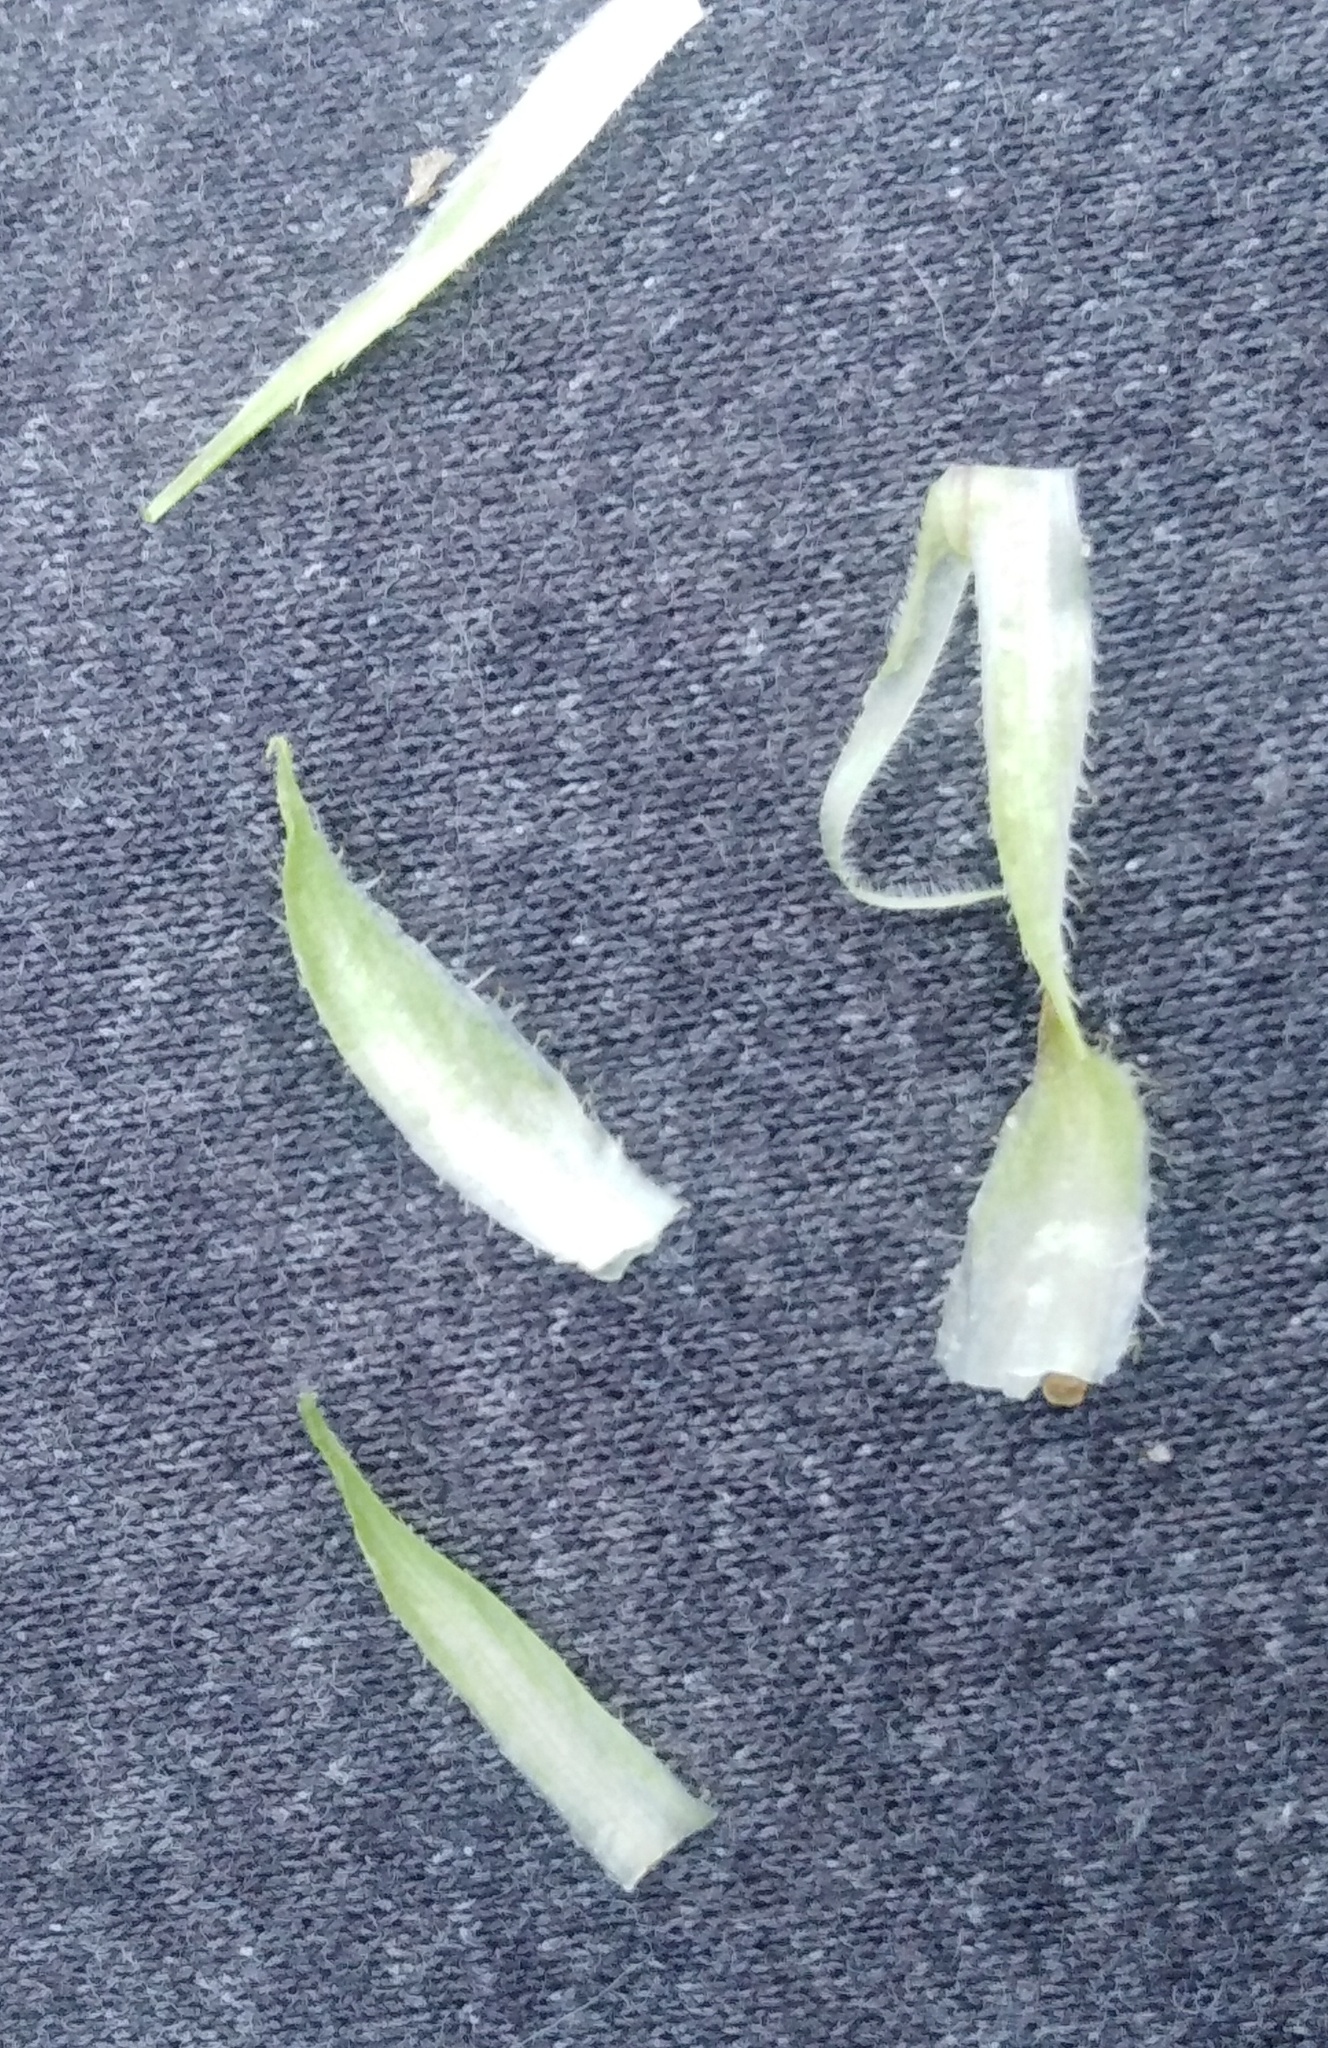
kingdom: Plantae
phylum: Tracheophyta
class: Magnoliopsida
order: Malpighiales
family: Violaceae
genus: Viola
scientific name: Viola hirta
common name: Hairy violet
